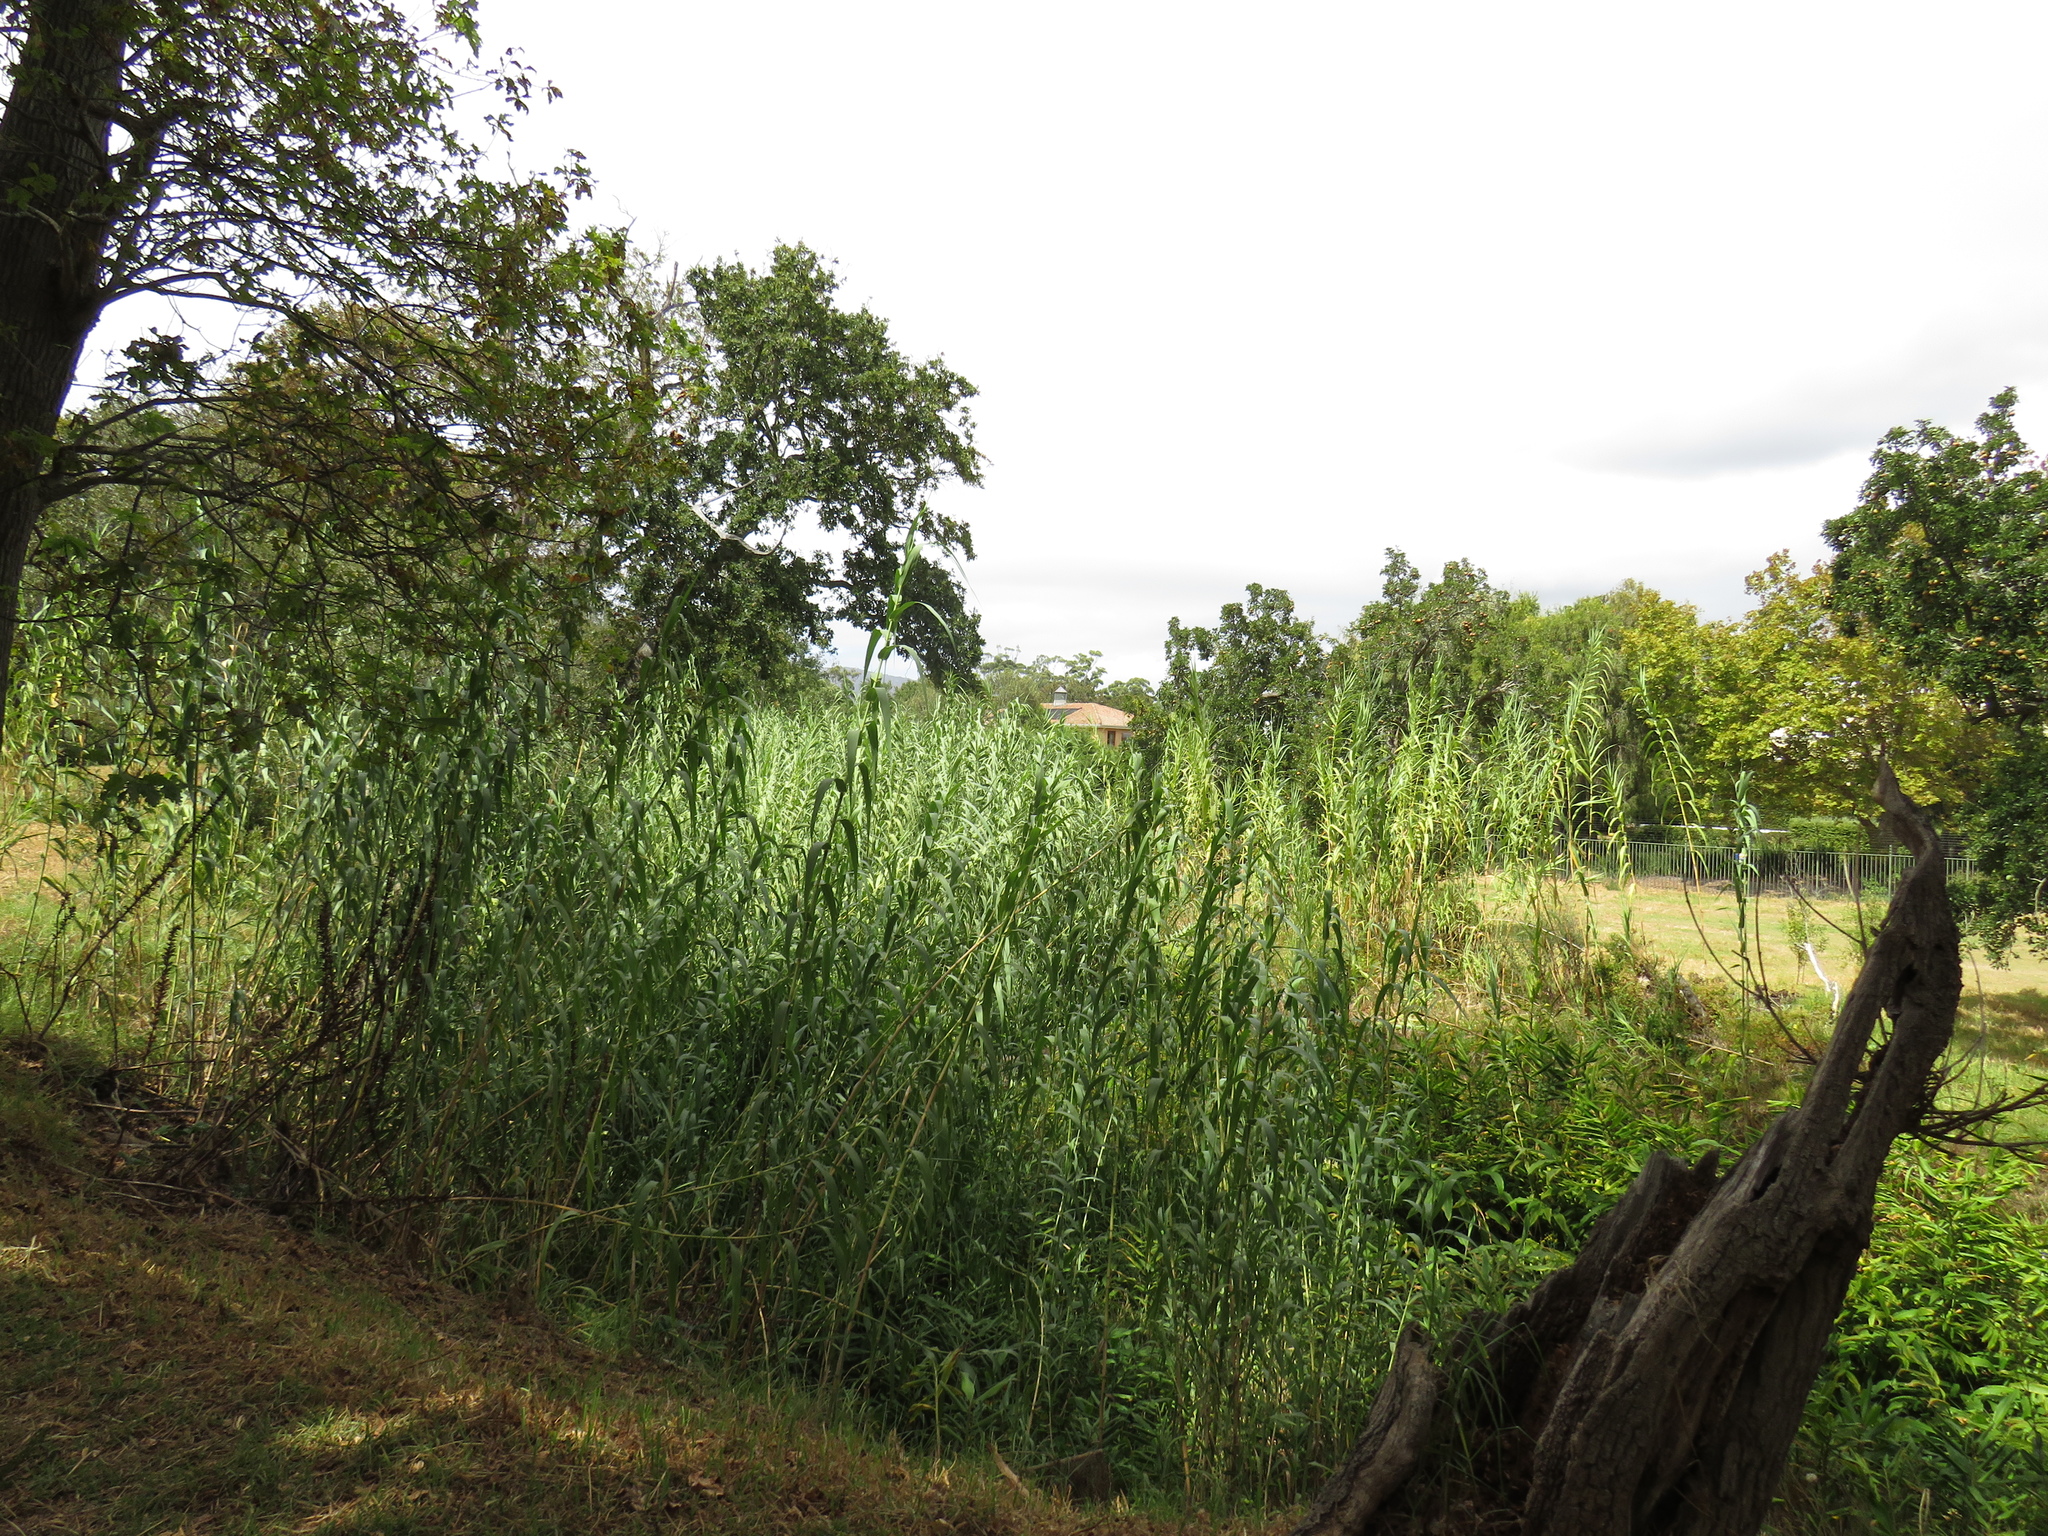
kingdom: Plantae
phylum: Tracheophyta
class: Liliopsida
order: Poales
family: Poaceae
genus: Arundo
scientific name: Arundo donax
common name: Giant reed
